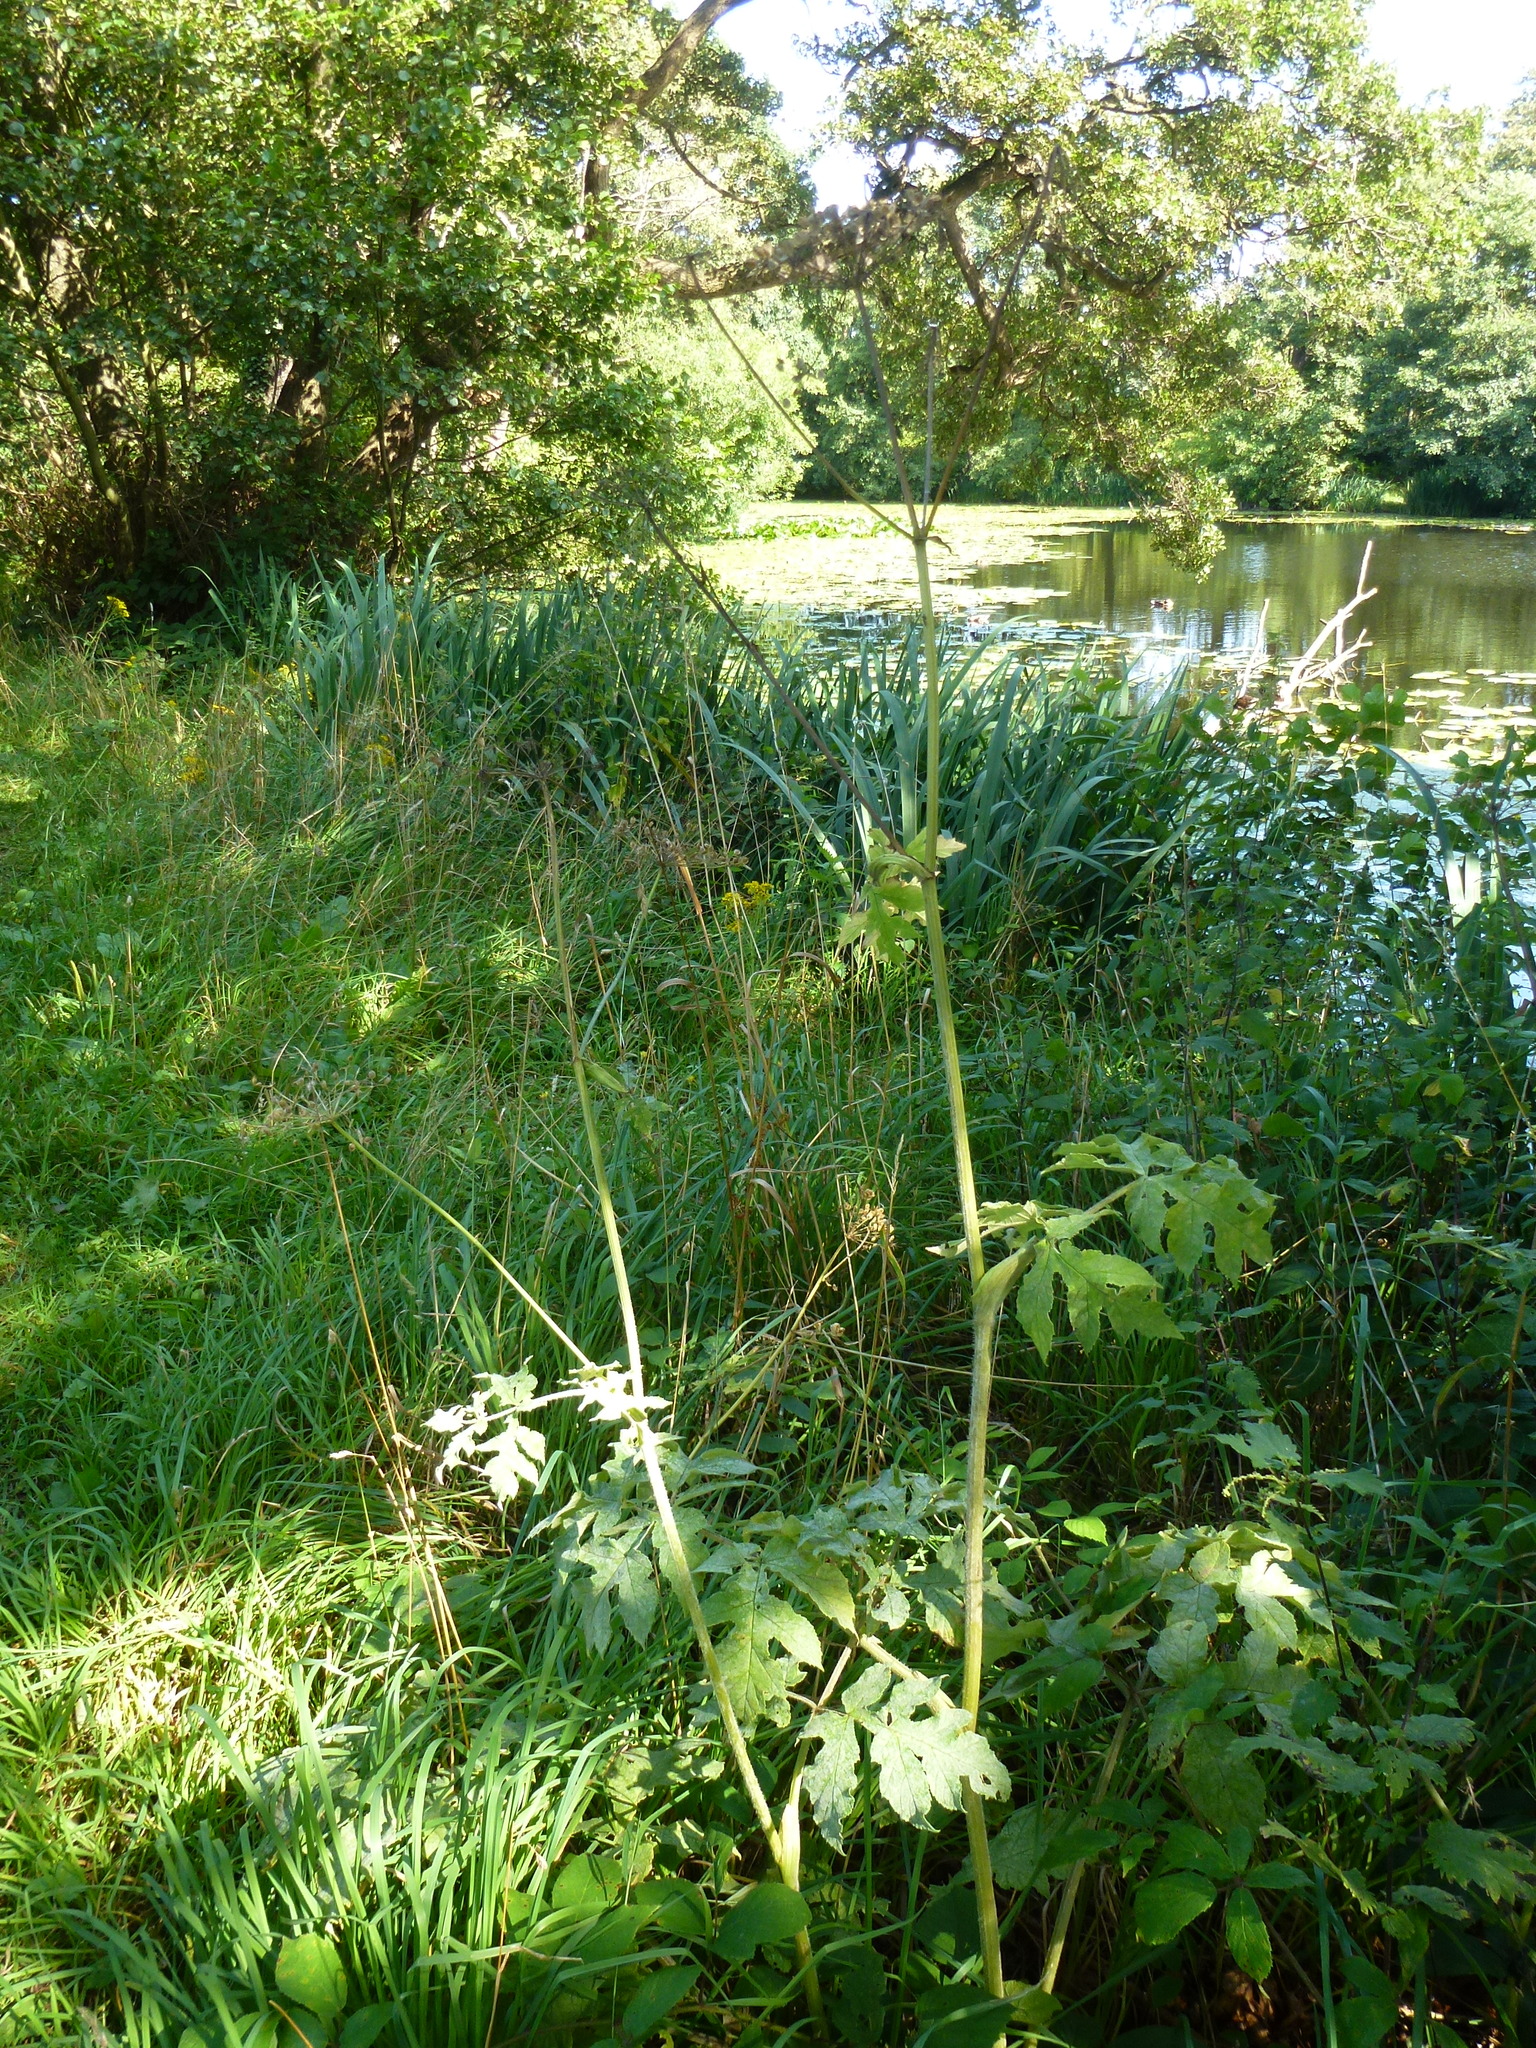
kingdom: Plantae
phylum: Tracheophyta
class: Magnoliopsida
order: Apiales
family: Apiaceae
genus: Heracleum
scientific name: Heracleum sphondylium
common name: Hogweed
